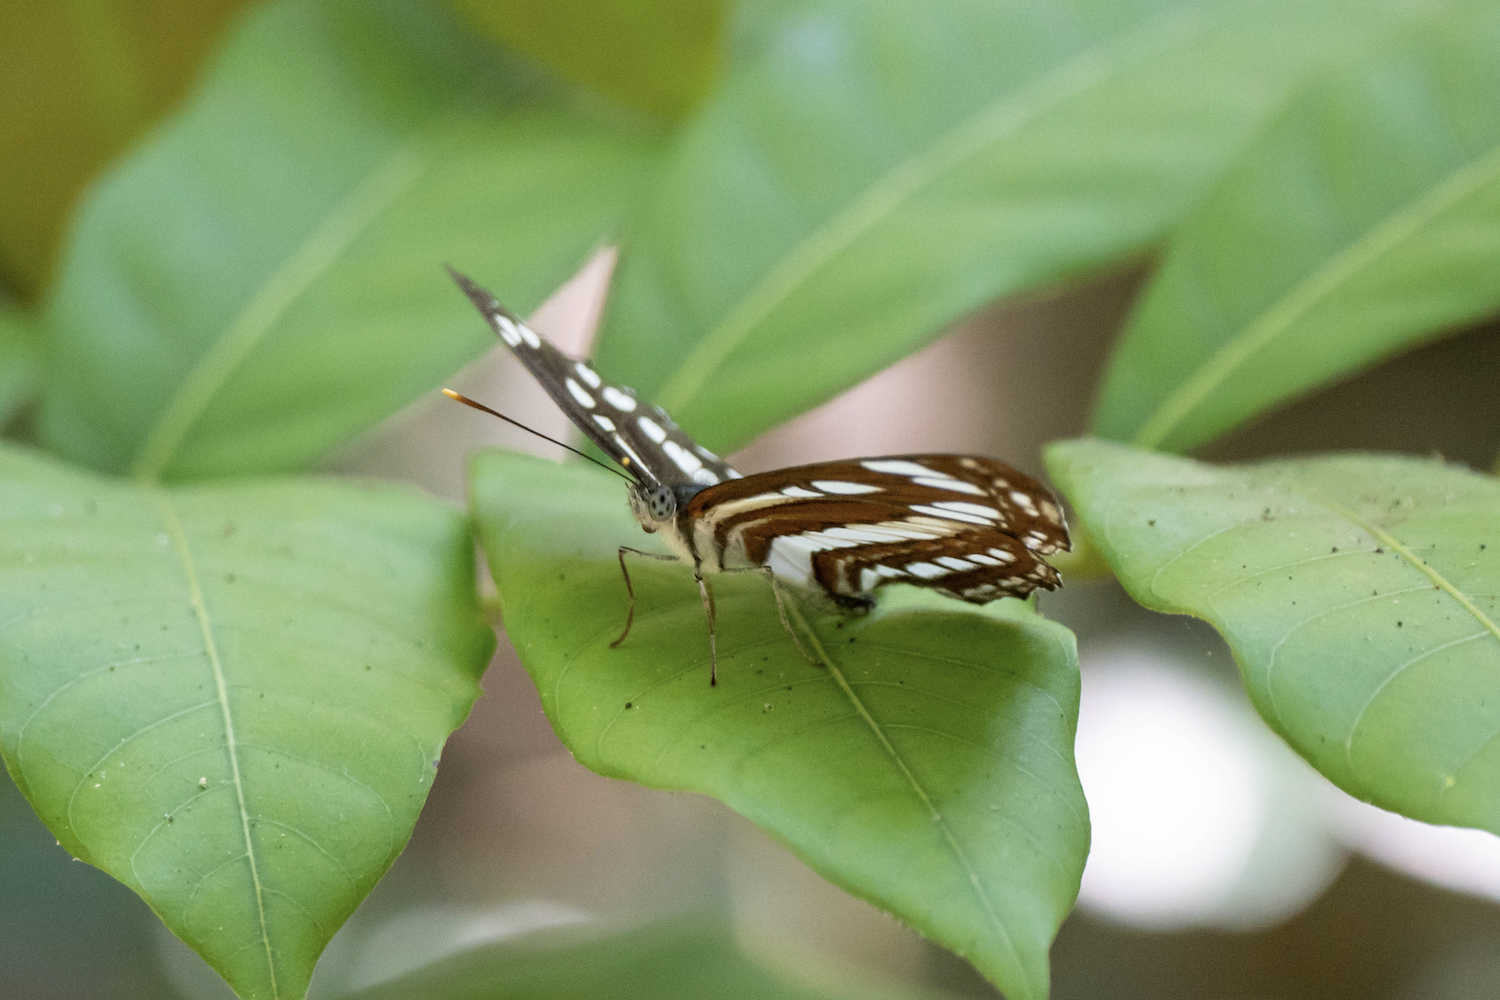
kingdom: Animalia
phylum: Arthropoda
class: Insecta
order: Lepidoptera
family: Nymphalidae
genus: Neptis
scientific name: Neptis hylas
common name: Common sailer
